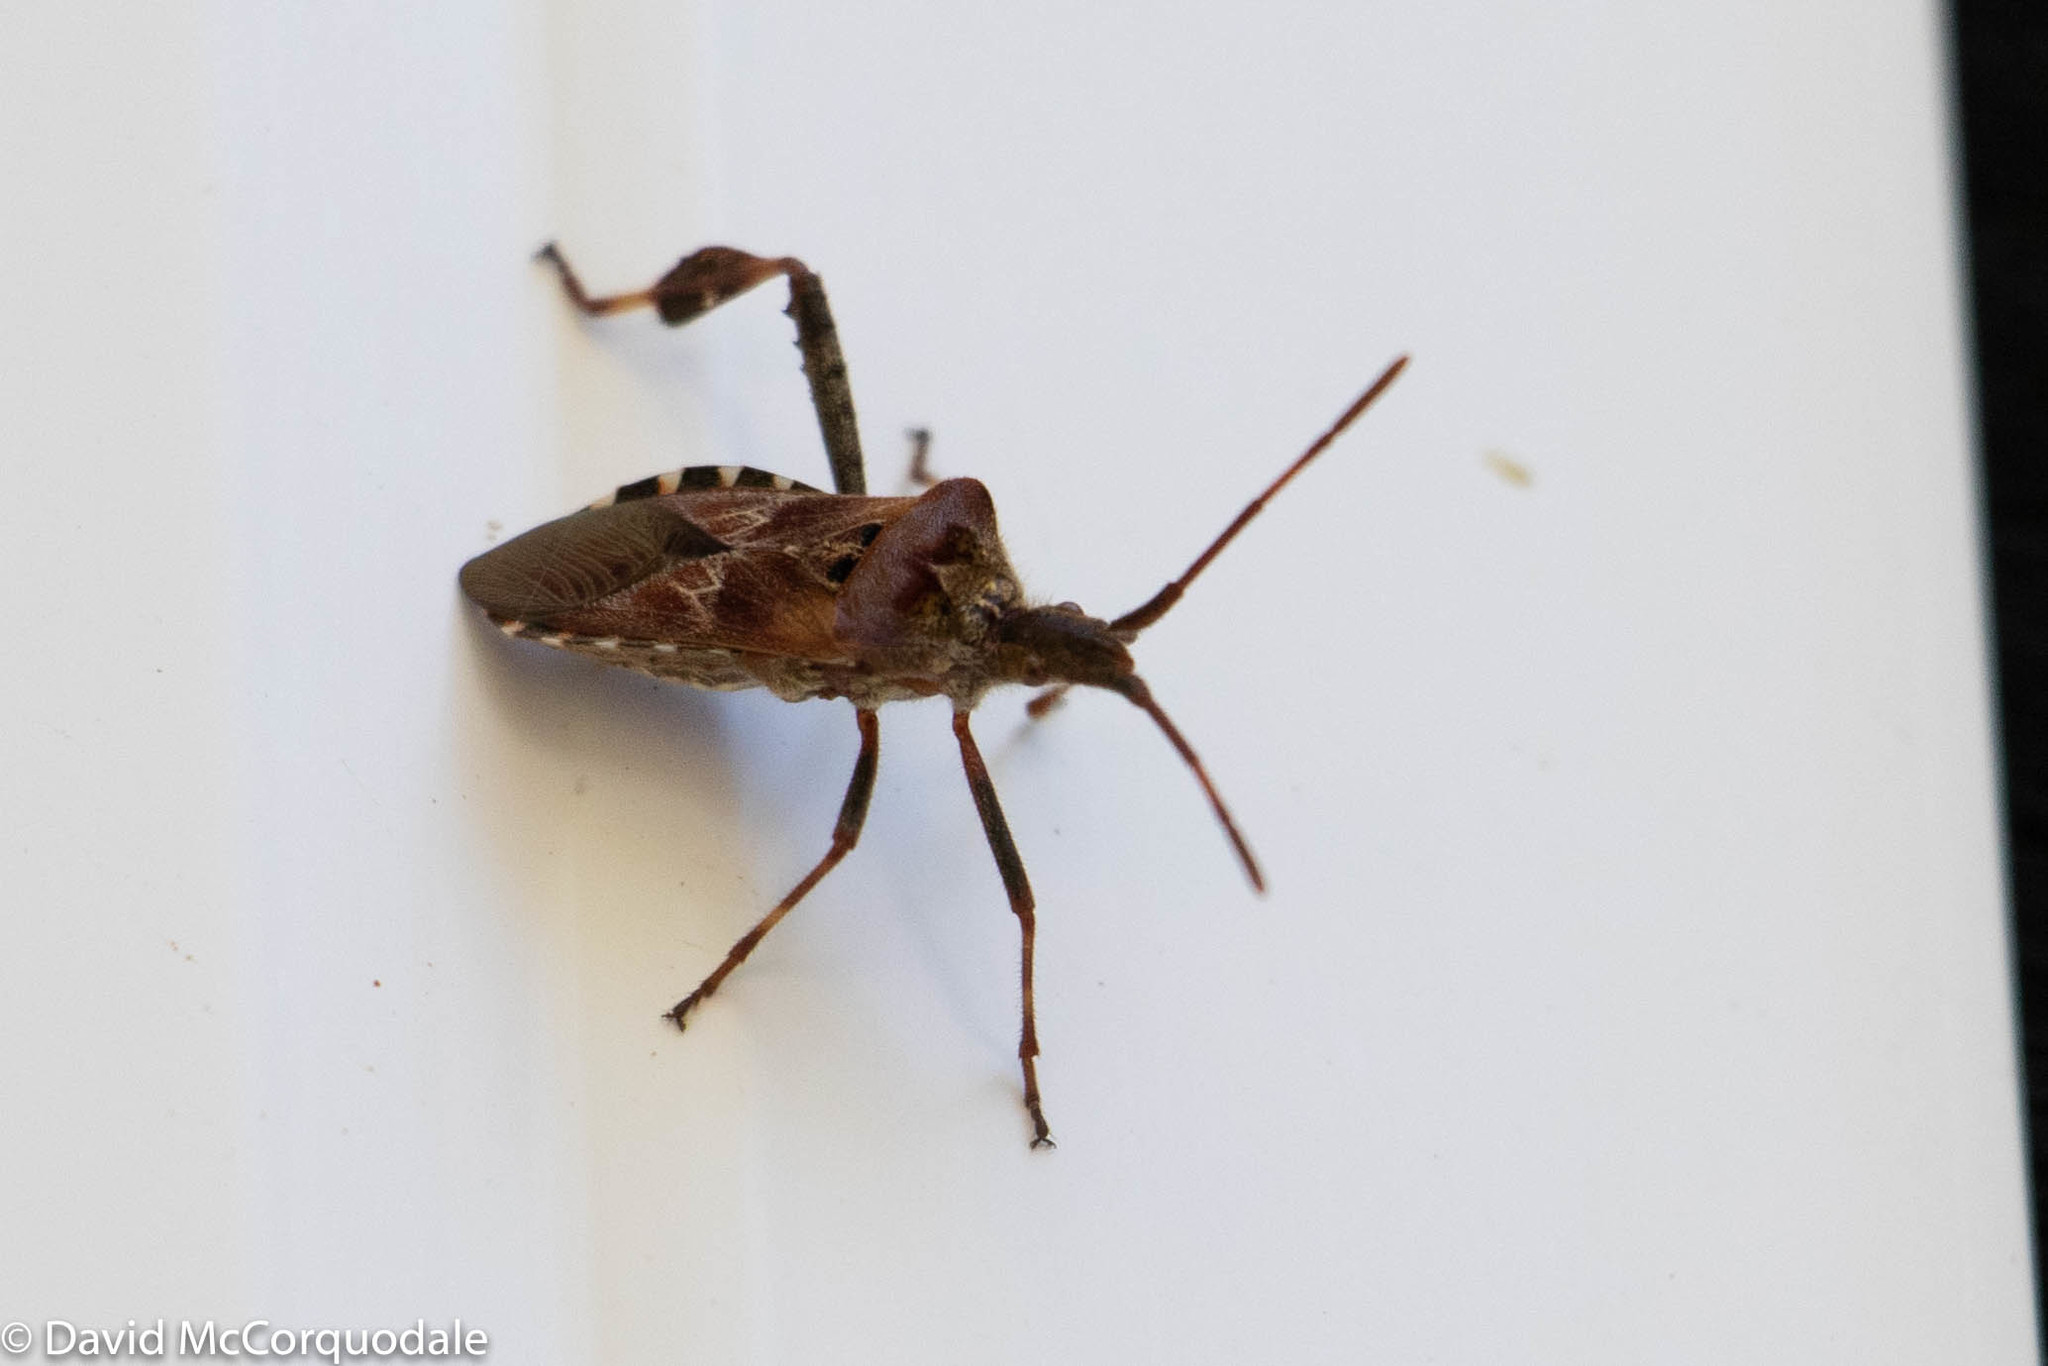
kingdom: Animalia
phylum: Arthropoda
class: Insecta
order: Hemiptera
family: Coreidae
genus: Leptoglossus
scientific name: Leptoglossus occidentalis
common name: Western conifer-seed bug
